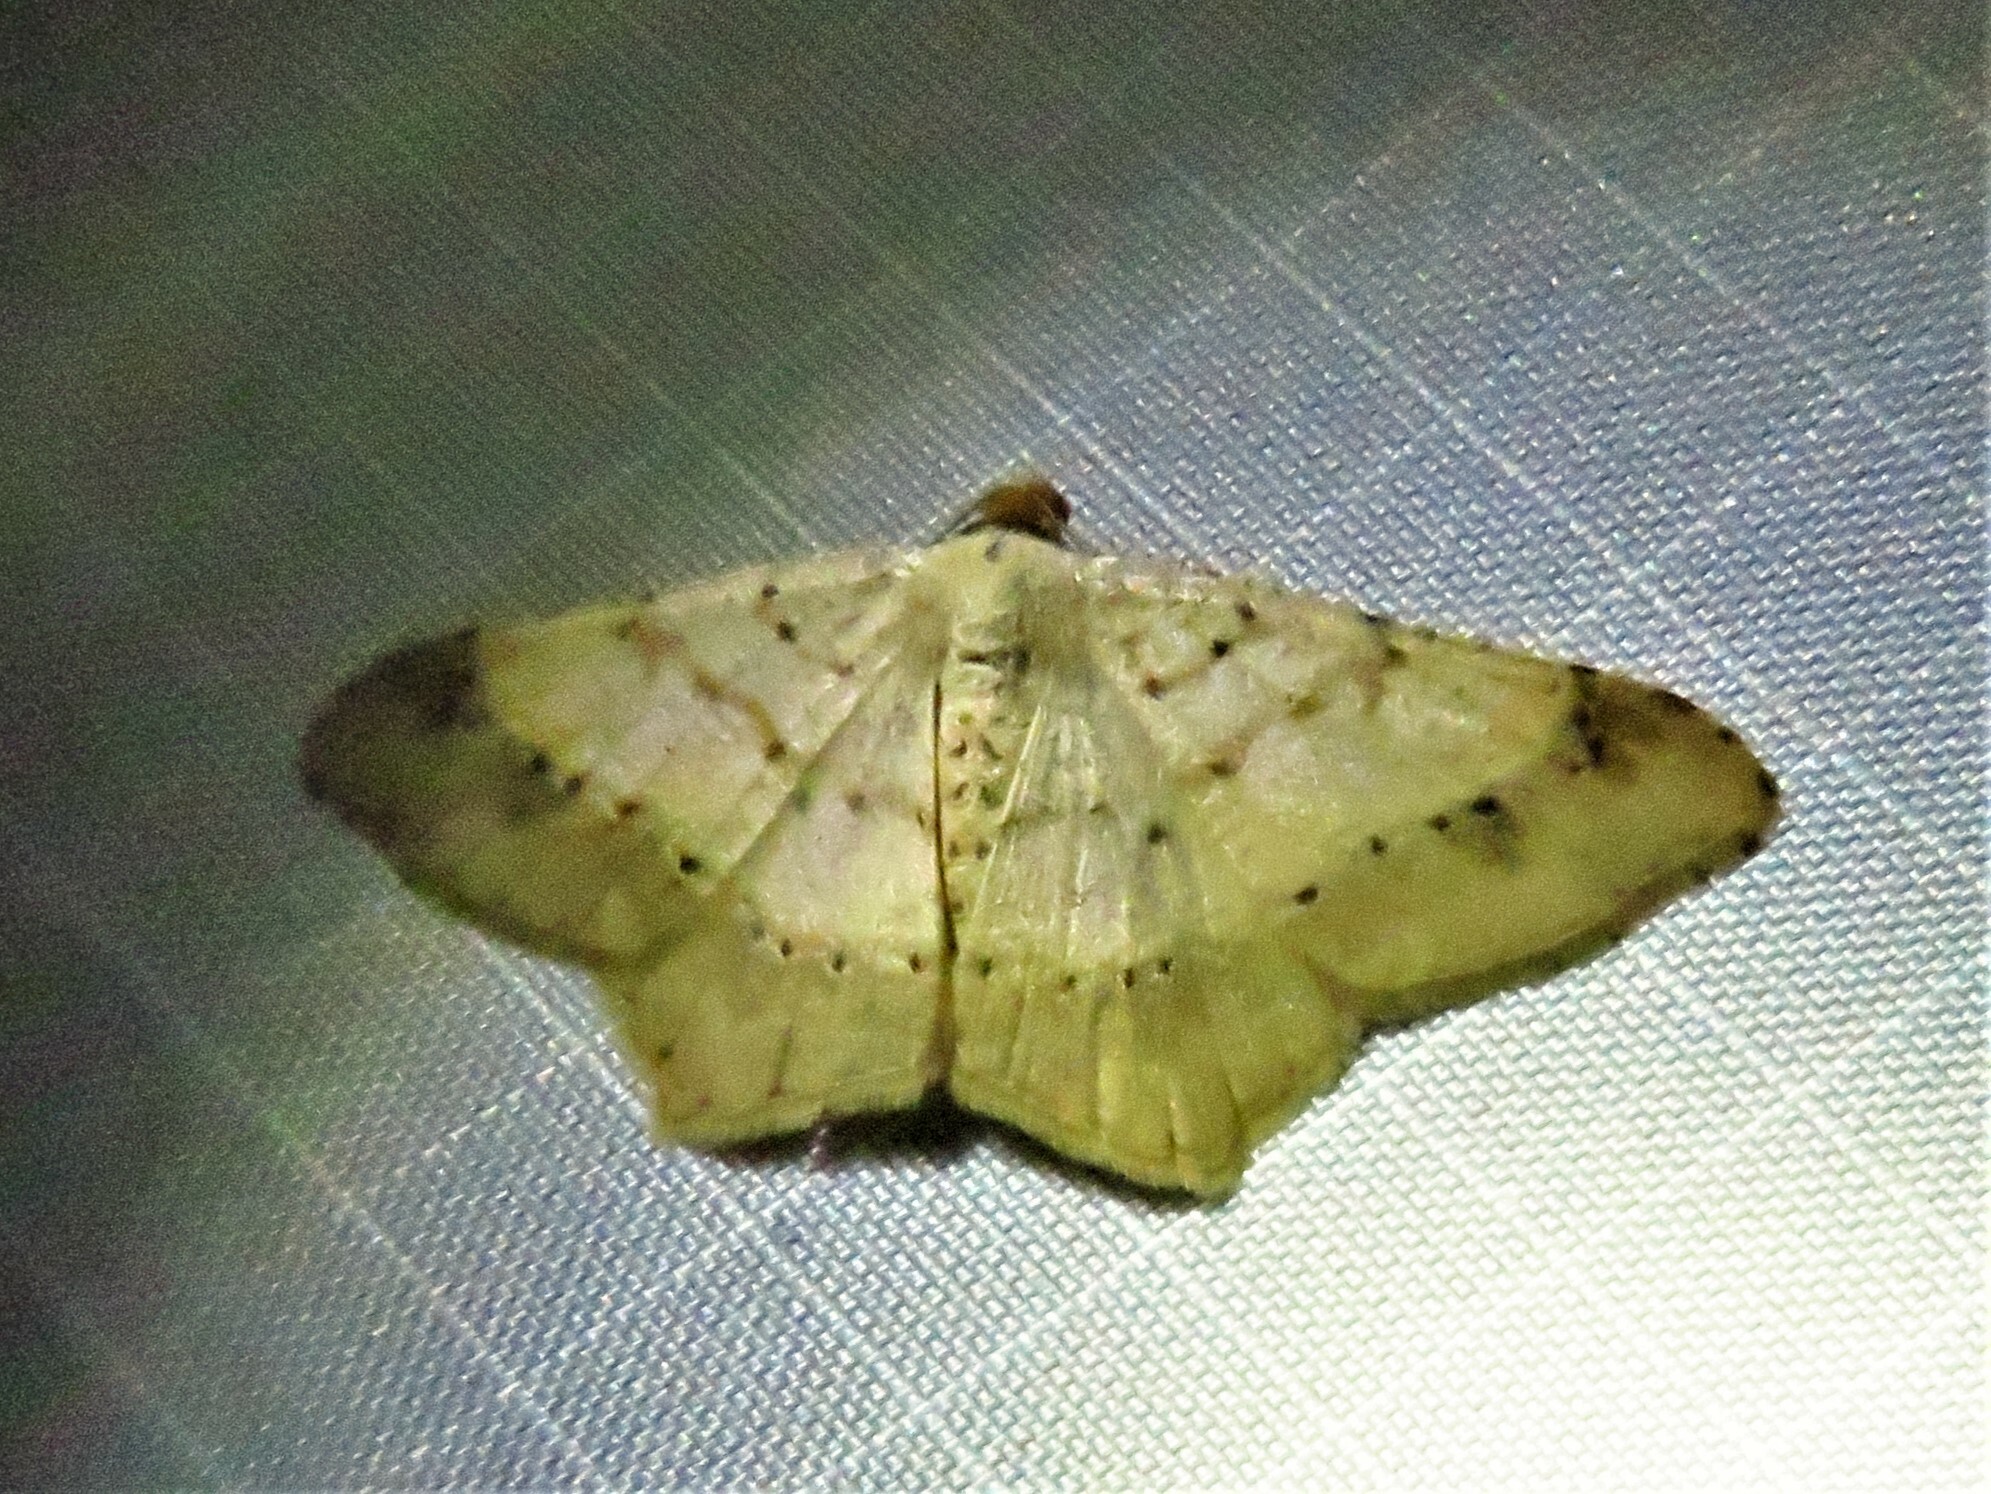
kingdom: Animalia
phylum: Arthropoda
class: Insecta
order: Lepidoptera
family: Geometridae
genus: Macaria
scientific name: Macaria abydata
